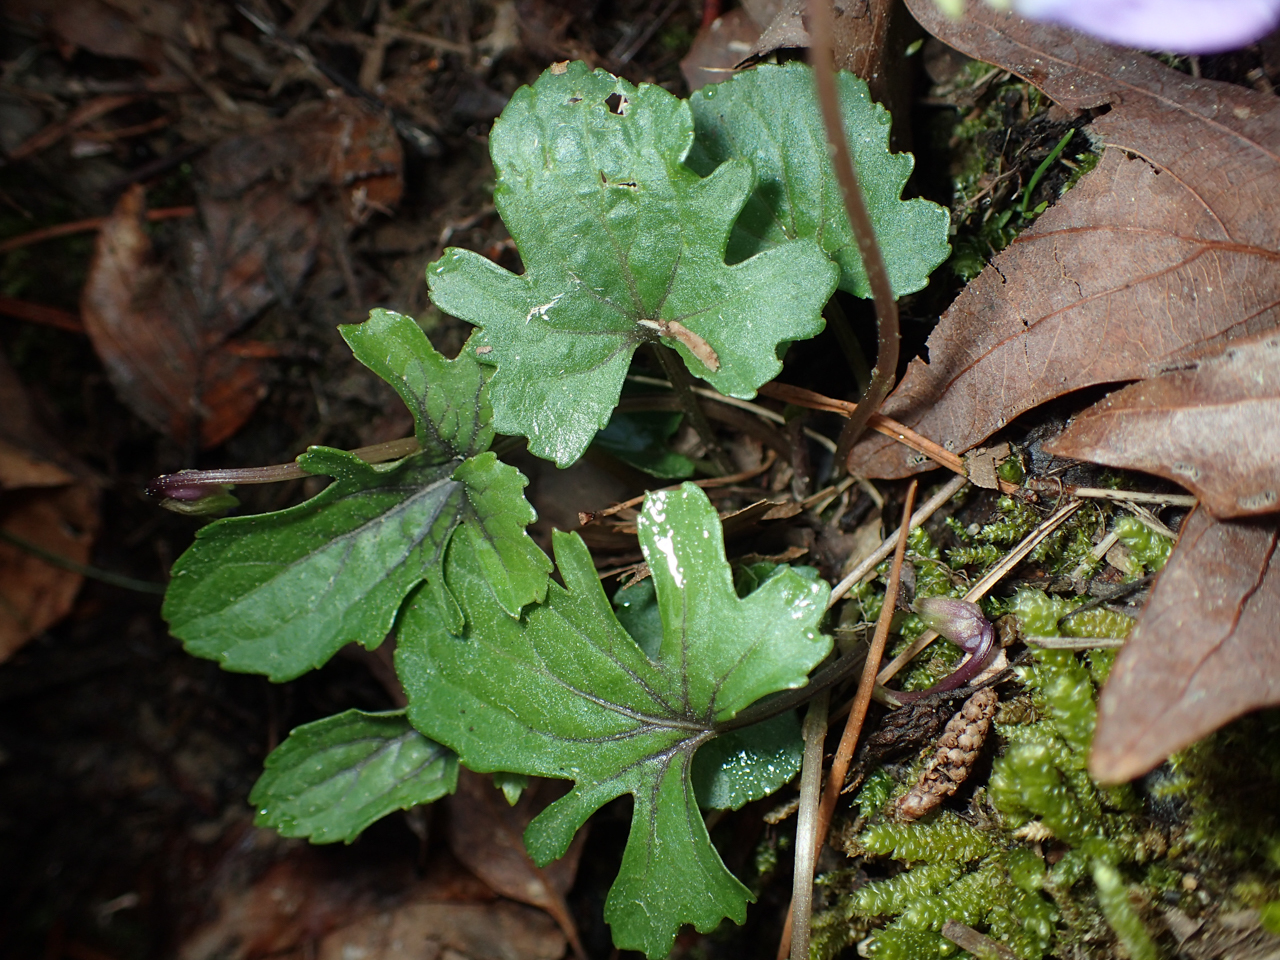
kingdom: Plantae
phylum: Tracheophyta
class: Magnoliopsida
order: Malpighiales
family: Violaceae
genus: Viola
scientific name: Viola palmata
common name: Early blue violet
